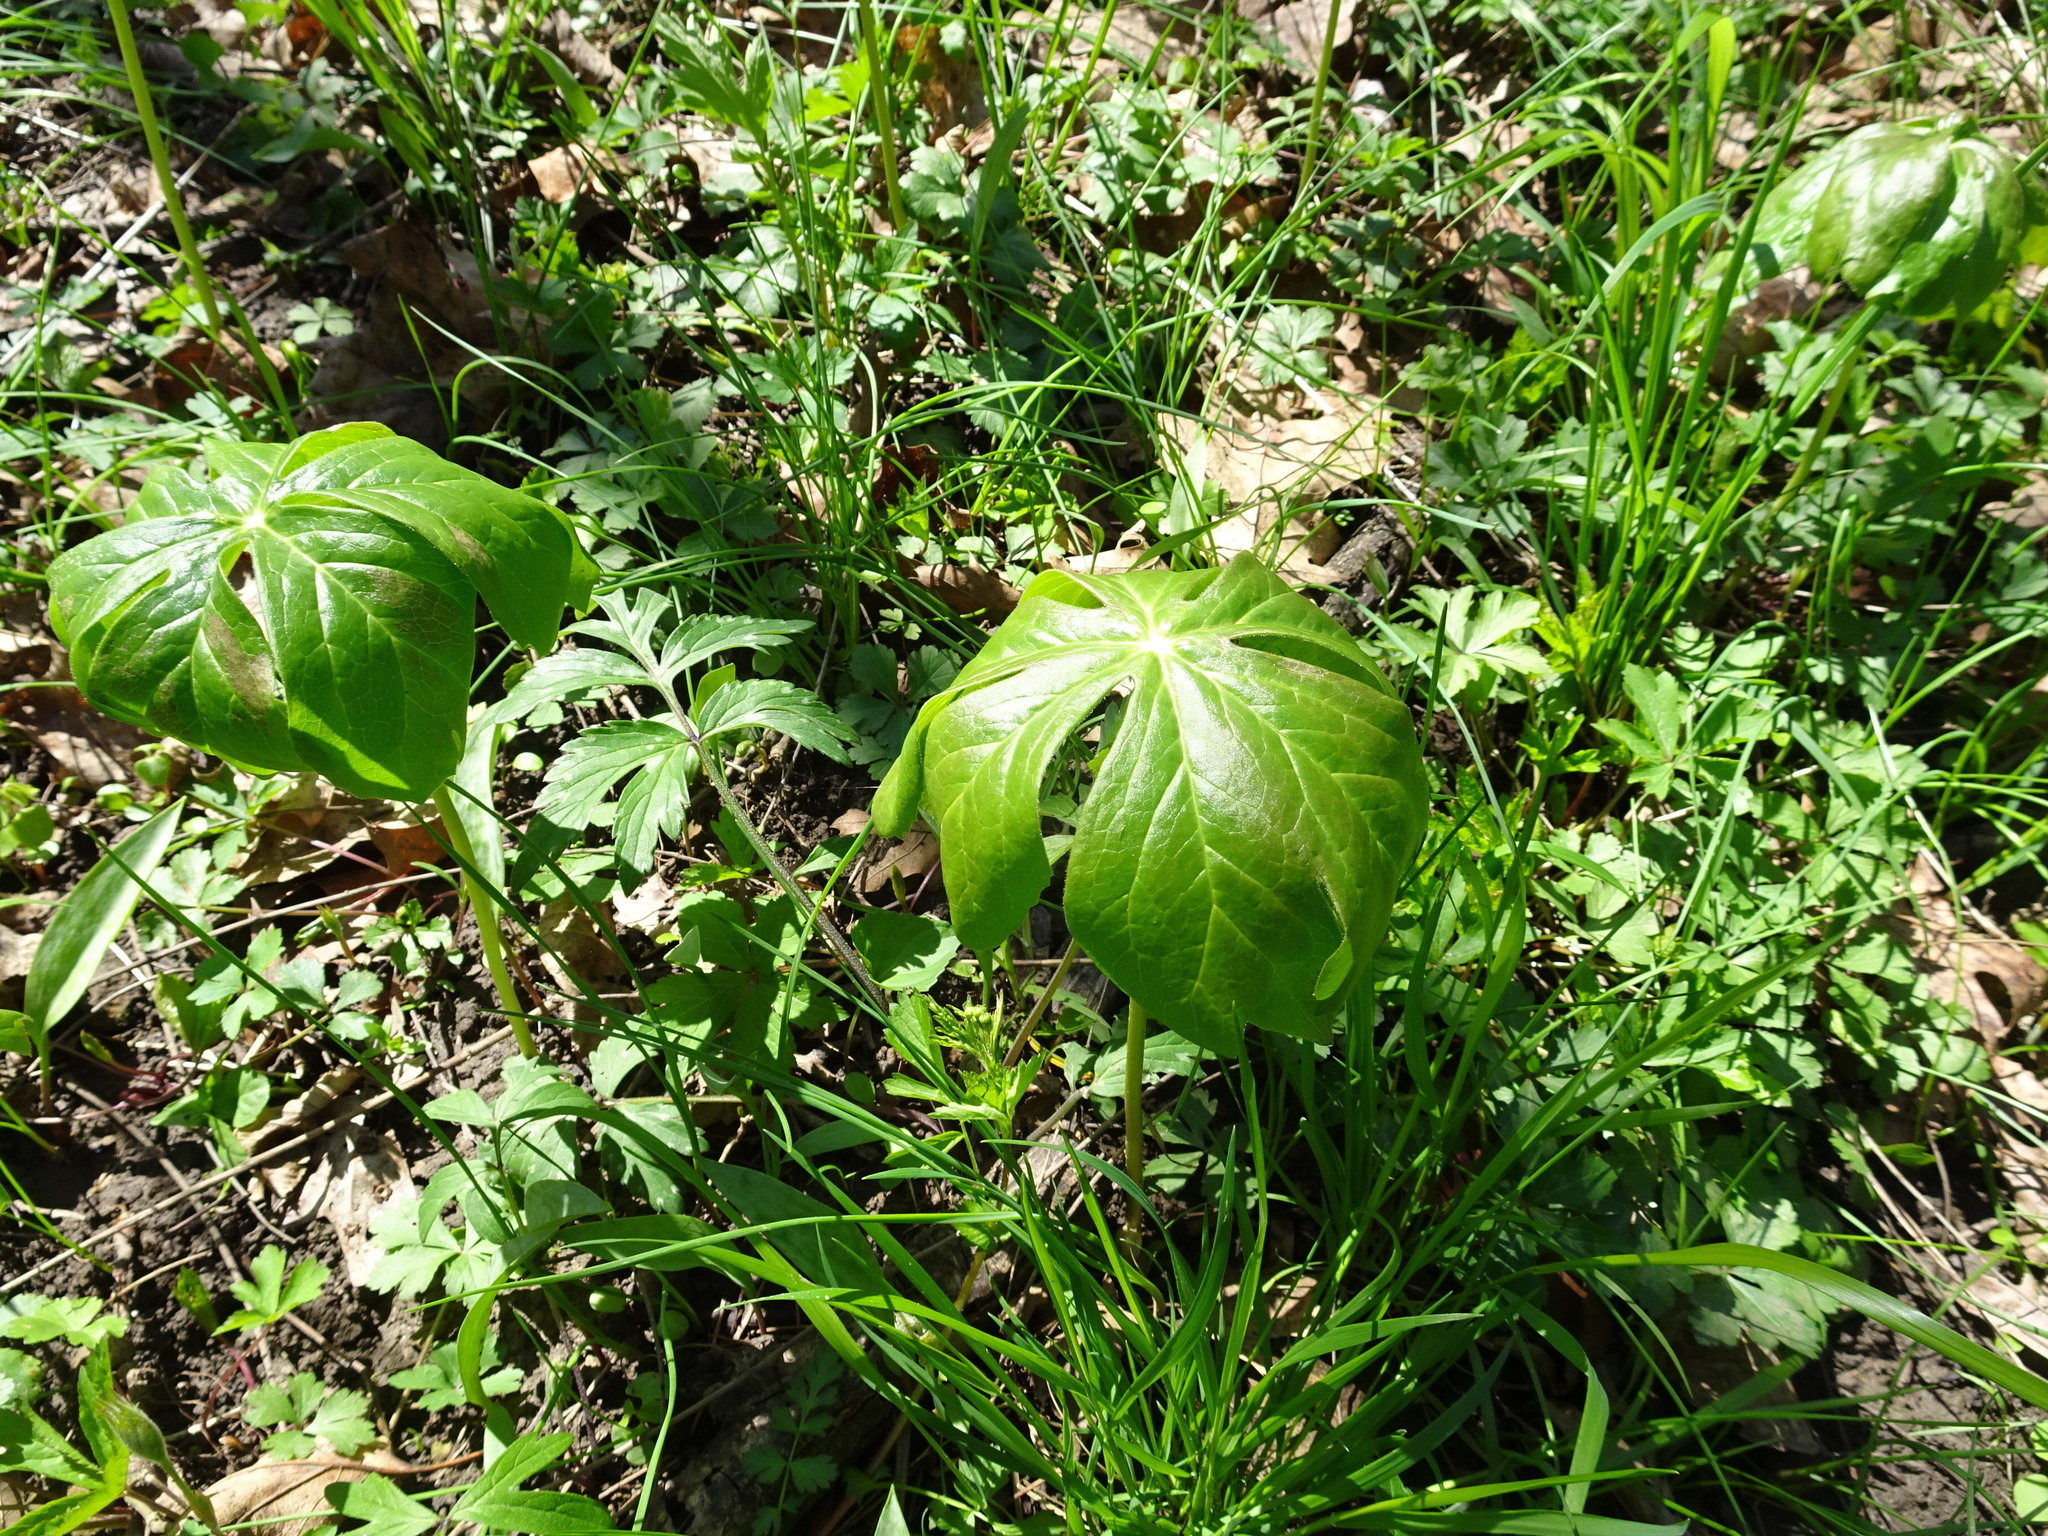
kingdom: Plantae
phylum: Tracheophyta
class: Magnoliopsida
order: Ranunculales
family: Berberidaceae
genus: Podophyllum
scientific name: Podophyllum peltatum
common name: Wild mandrake
